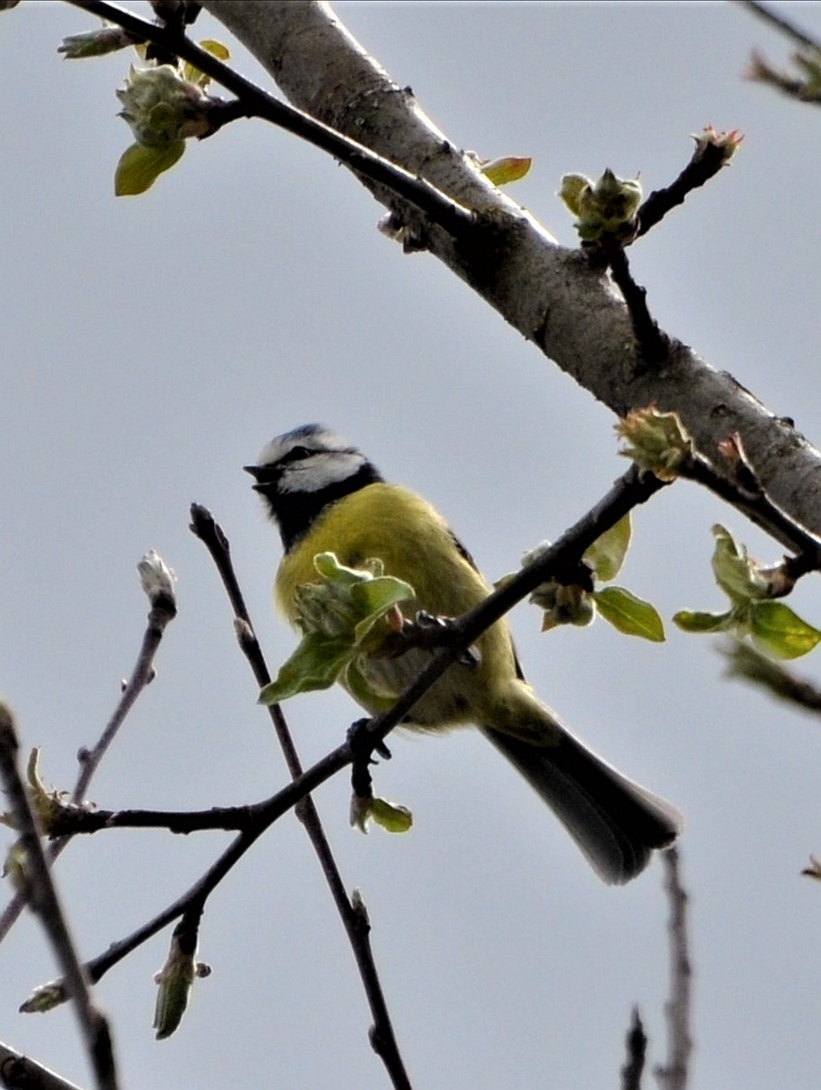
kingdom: Animalia
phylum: Chordata
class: Aves
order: Passeriformes
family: Paridae
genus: Cyanistes
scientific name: Cyanistes caeruleus
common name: Eurasian blue tit
